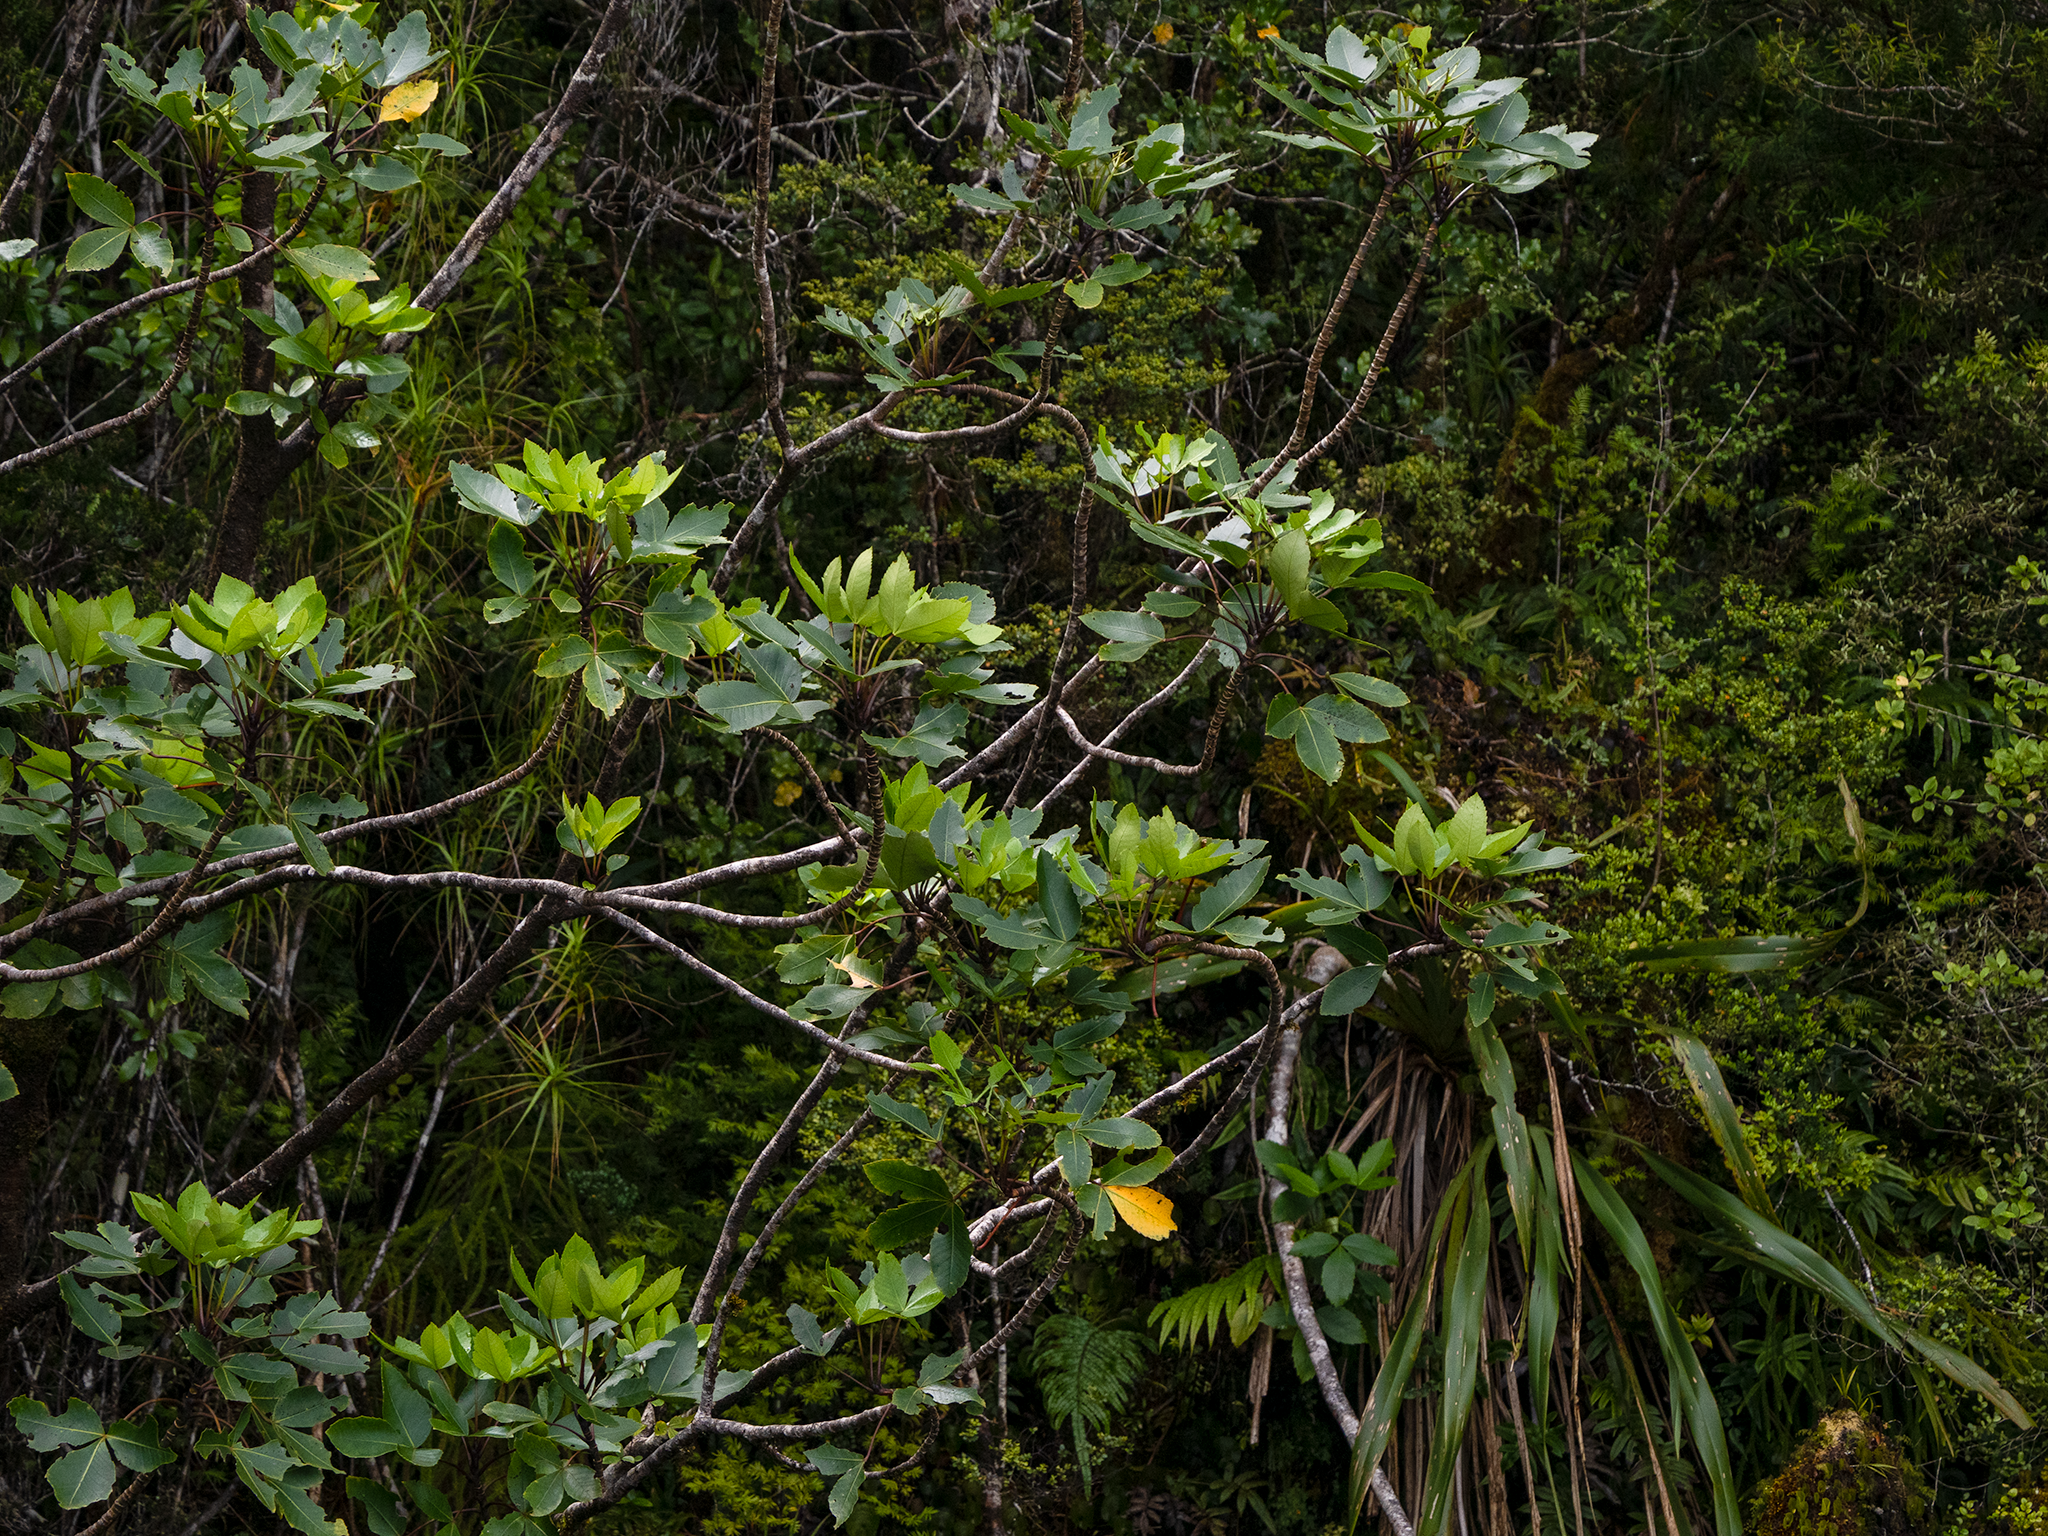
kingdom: Plantae
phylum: Tracheophyta
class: Magnoliopsida
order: Apiales
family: Araliaceae
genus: Neopanax
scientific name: Neopanax colensoi
